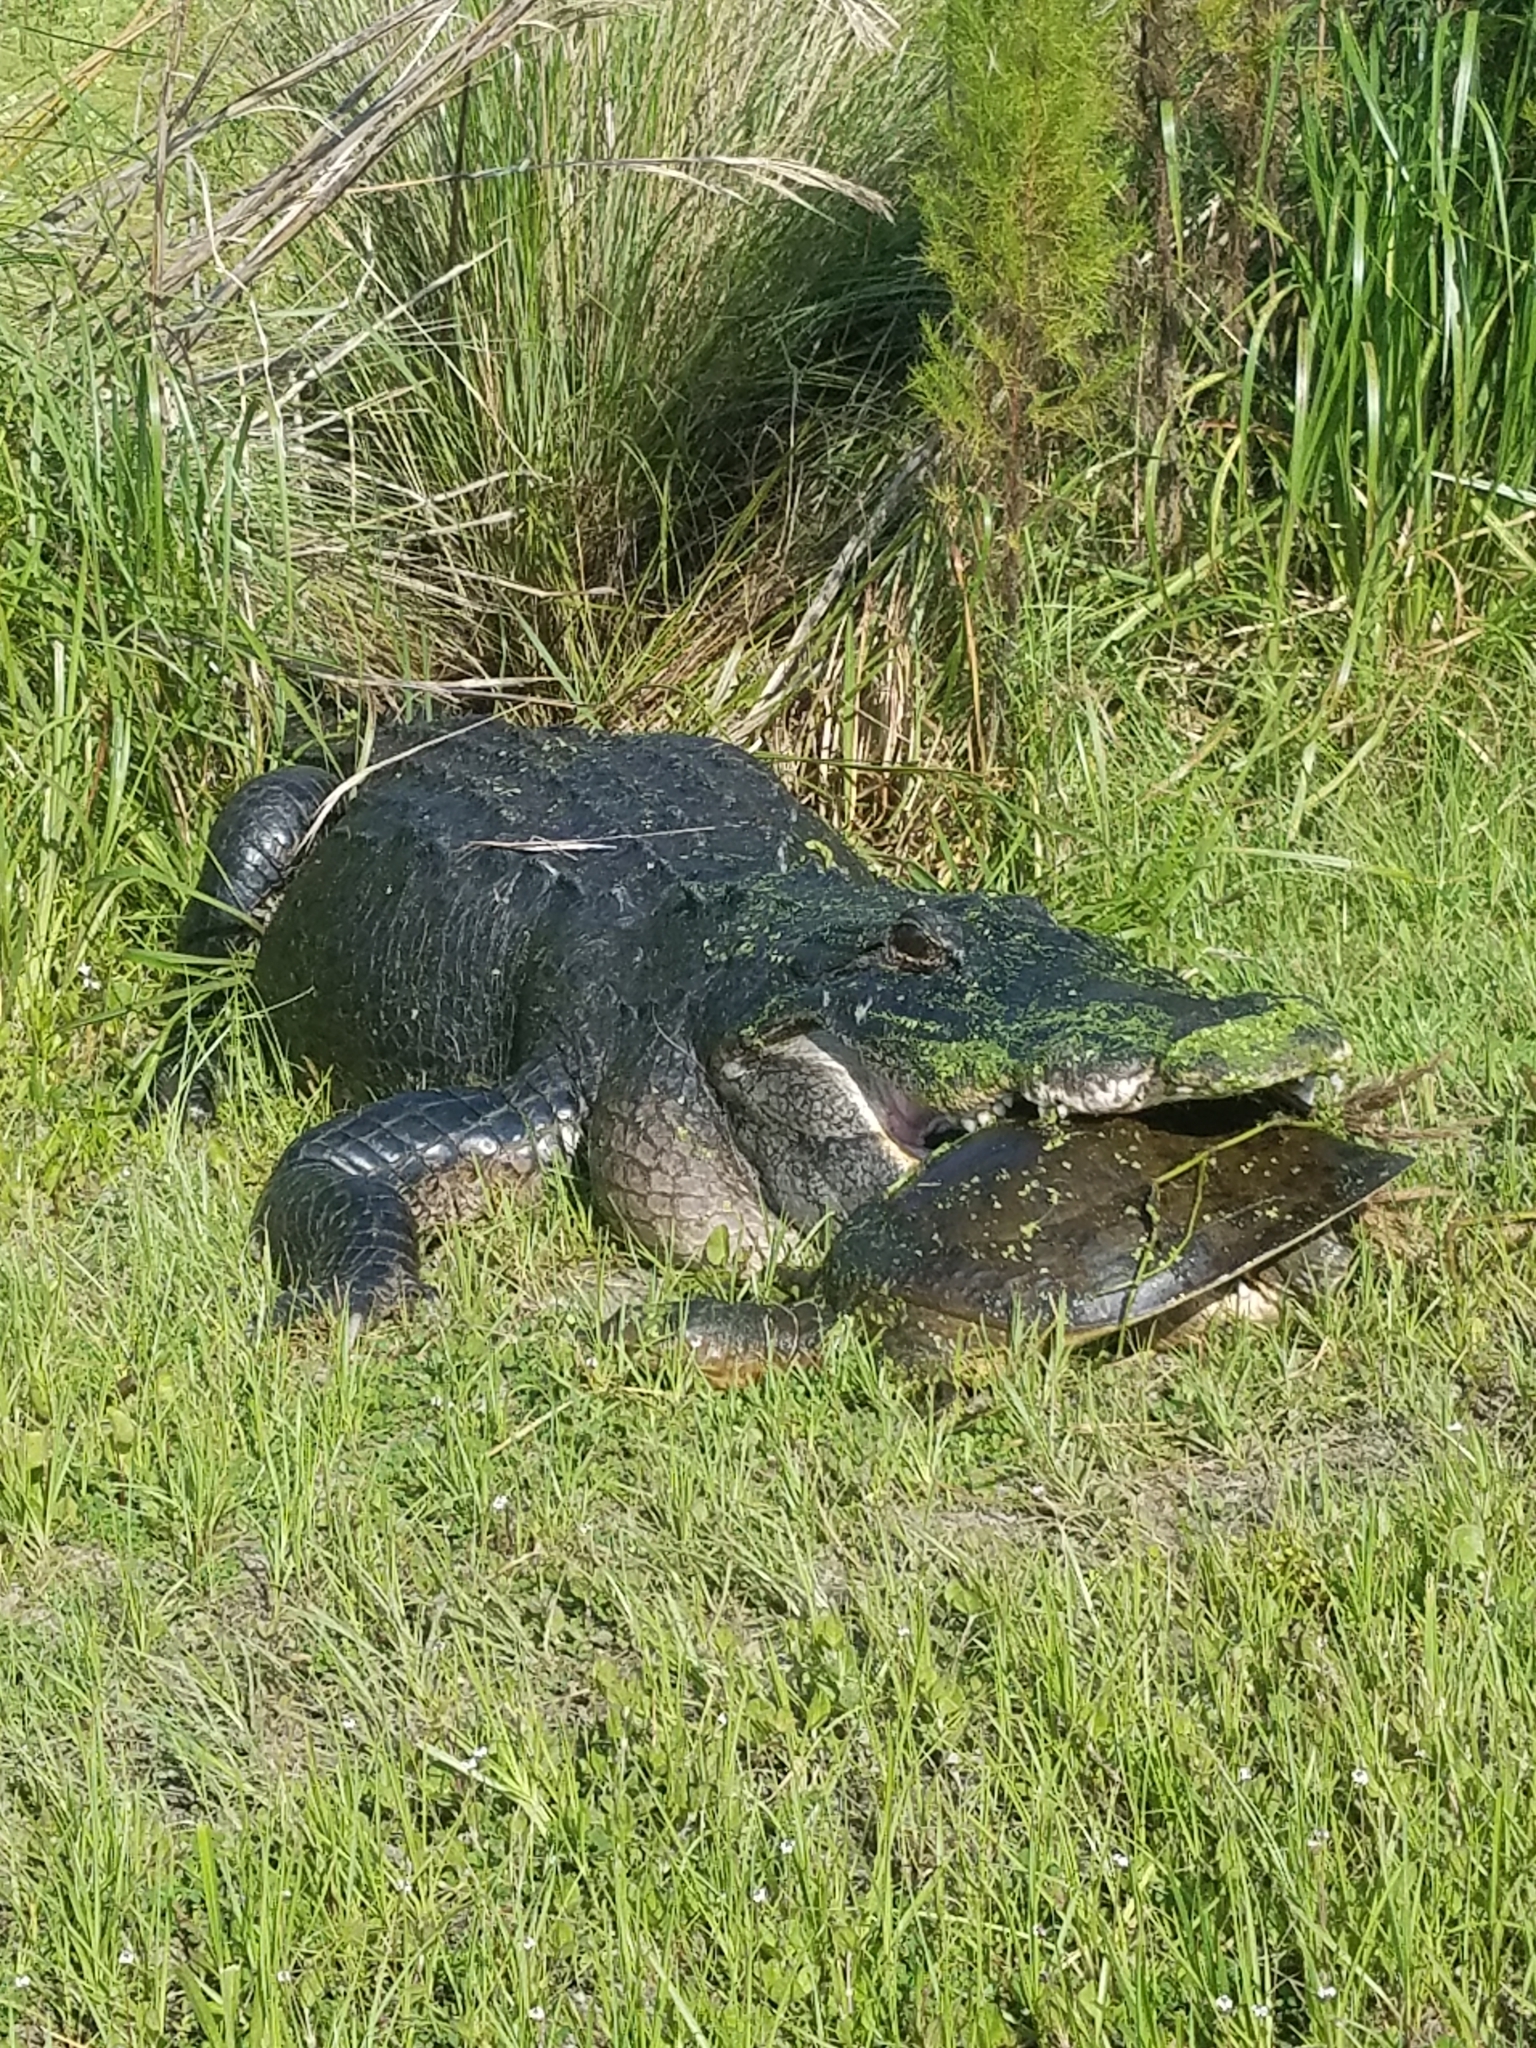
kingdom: Animalia
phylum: Chordata
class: Crocodylia
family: Alligatoridae
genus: Alligator
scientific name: Alligator mississippiensis
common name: American alligator
